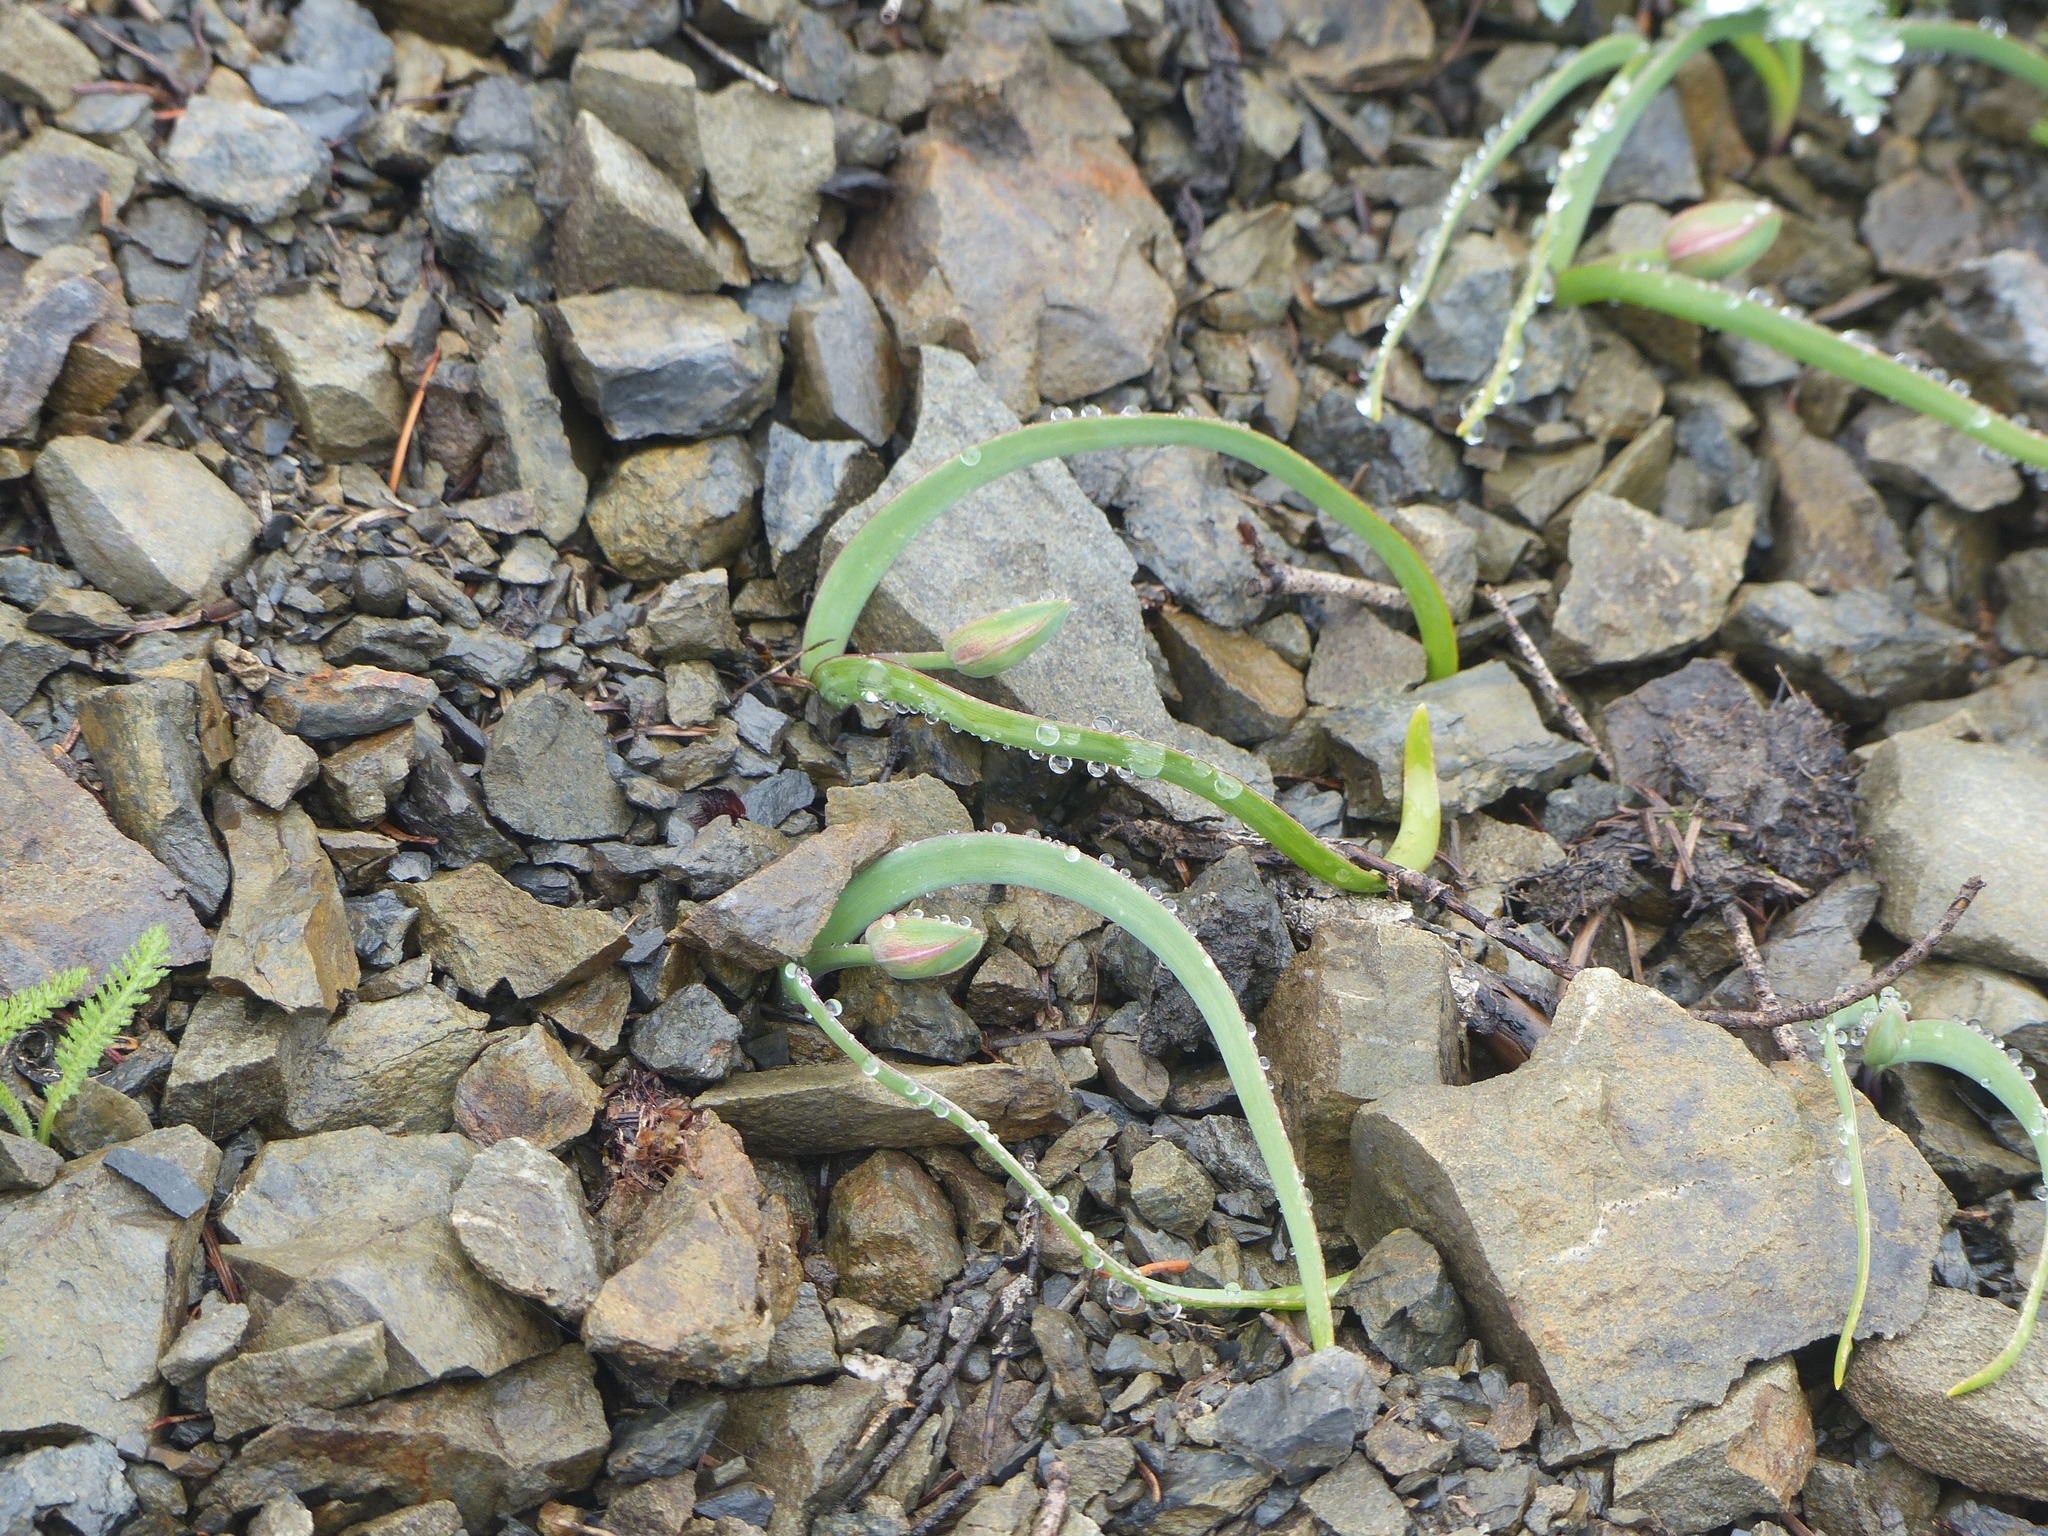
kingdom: Plantae
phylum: Tracheophyta
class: Liliopsida
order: Asparagales
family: Amaryllidaceae
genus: Allium
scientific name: Allium crenulatum
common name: Olympic onion
